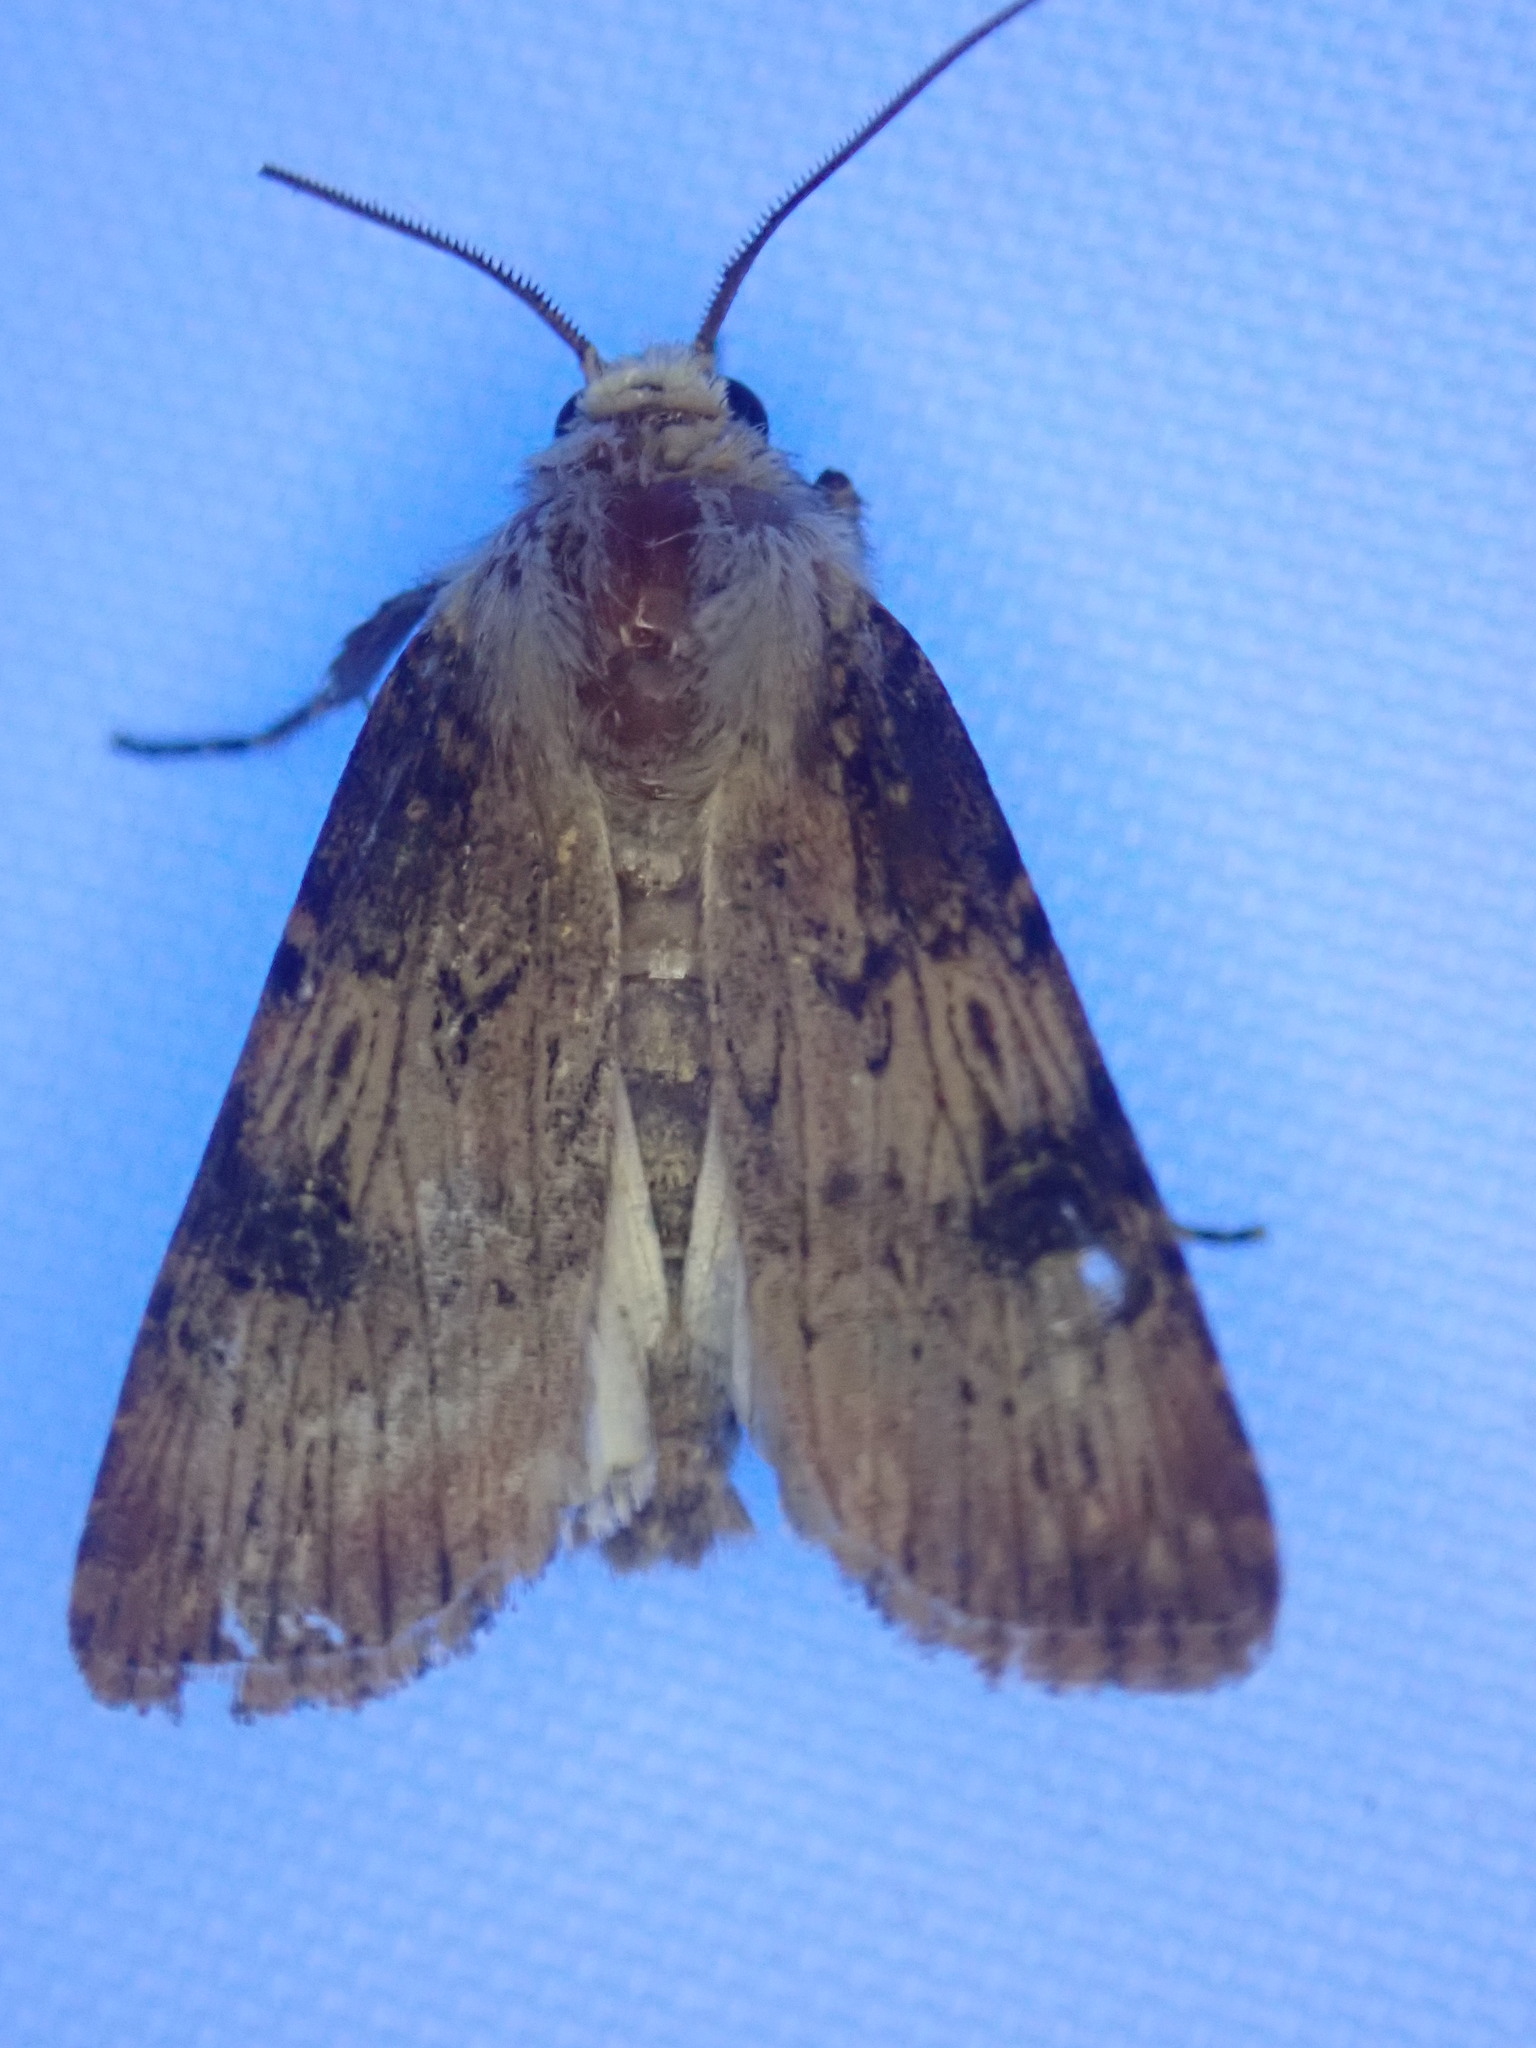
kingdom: Animalia
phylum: Arthropoda
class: Insecta
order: Lepidoptera
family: Noctuidae
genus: Agrotis
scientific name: Agrotis puta
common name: Shuttle-shaped dart
